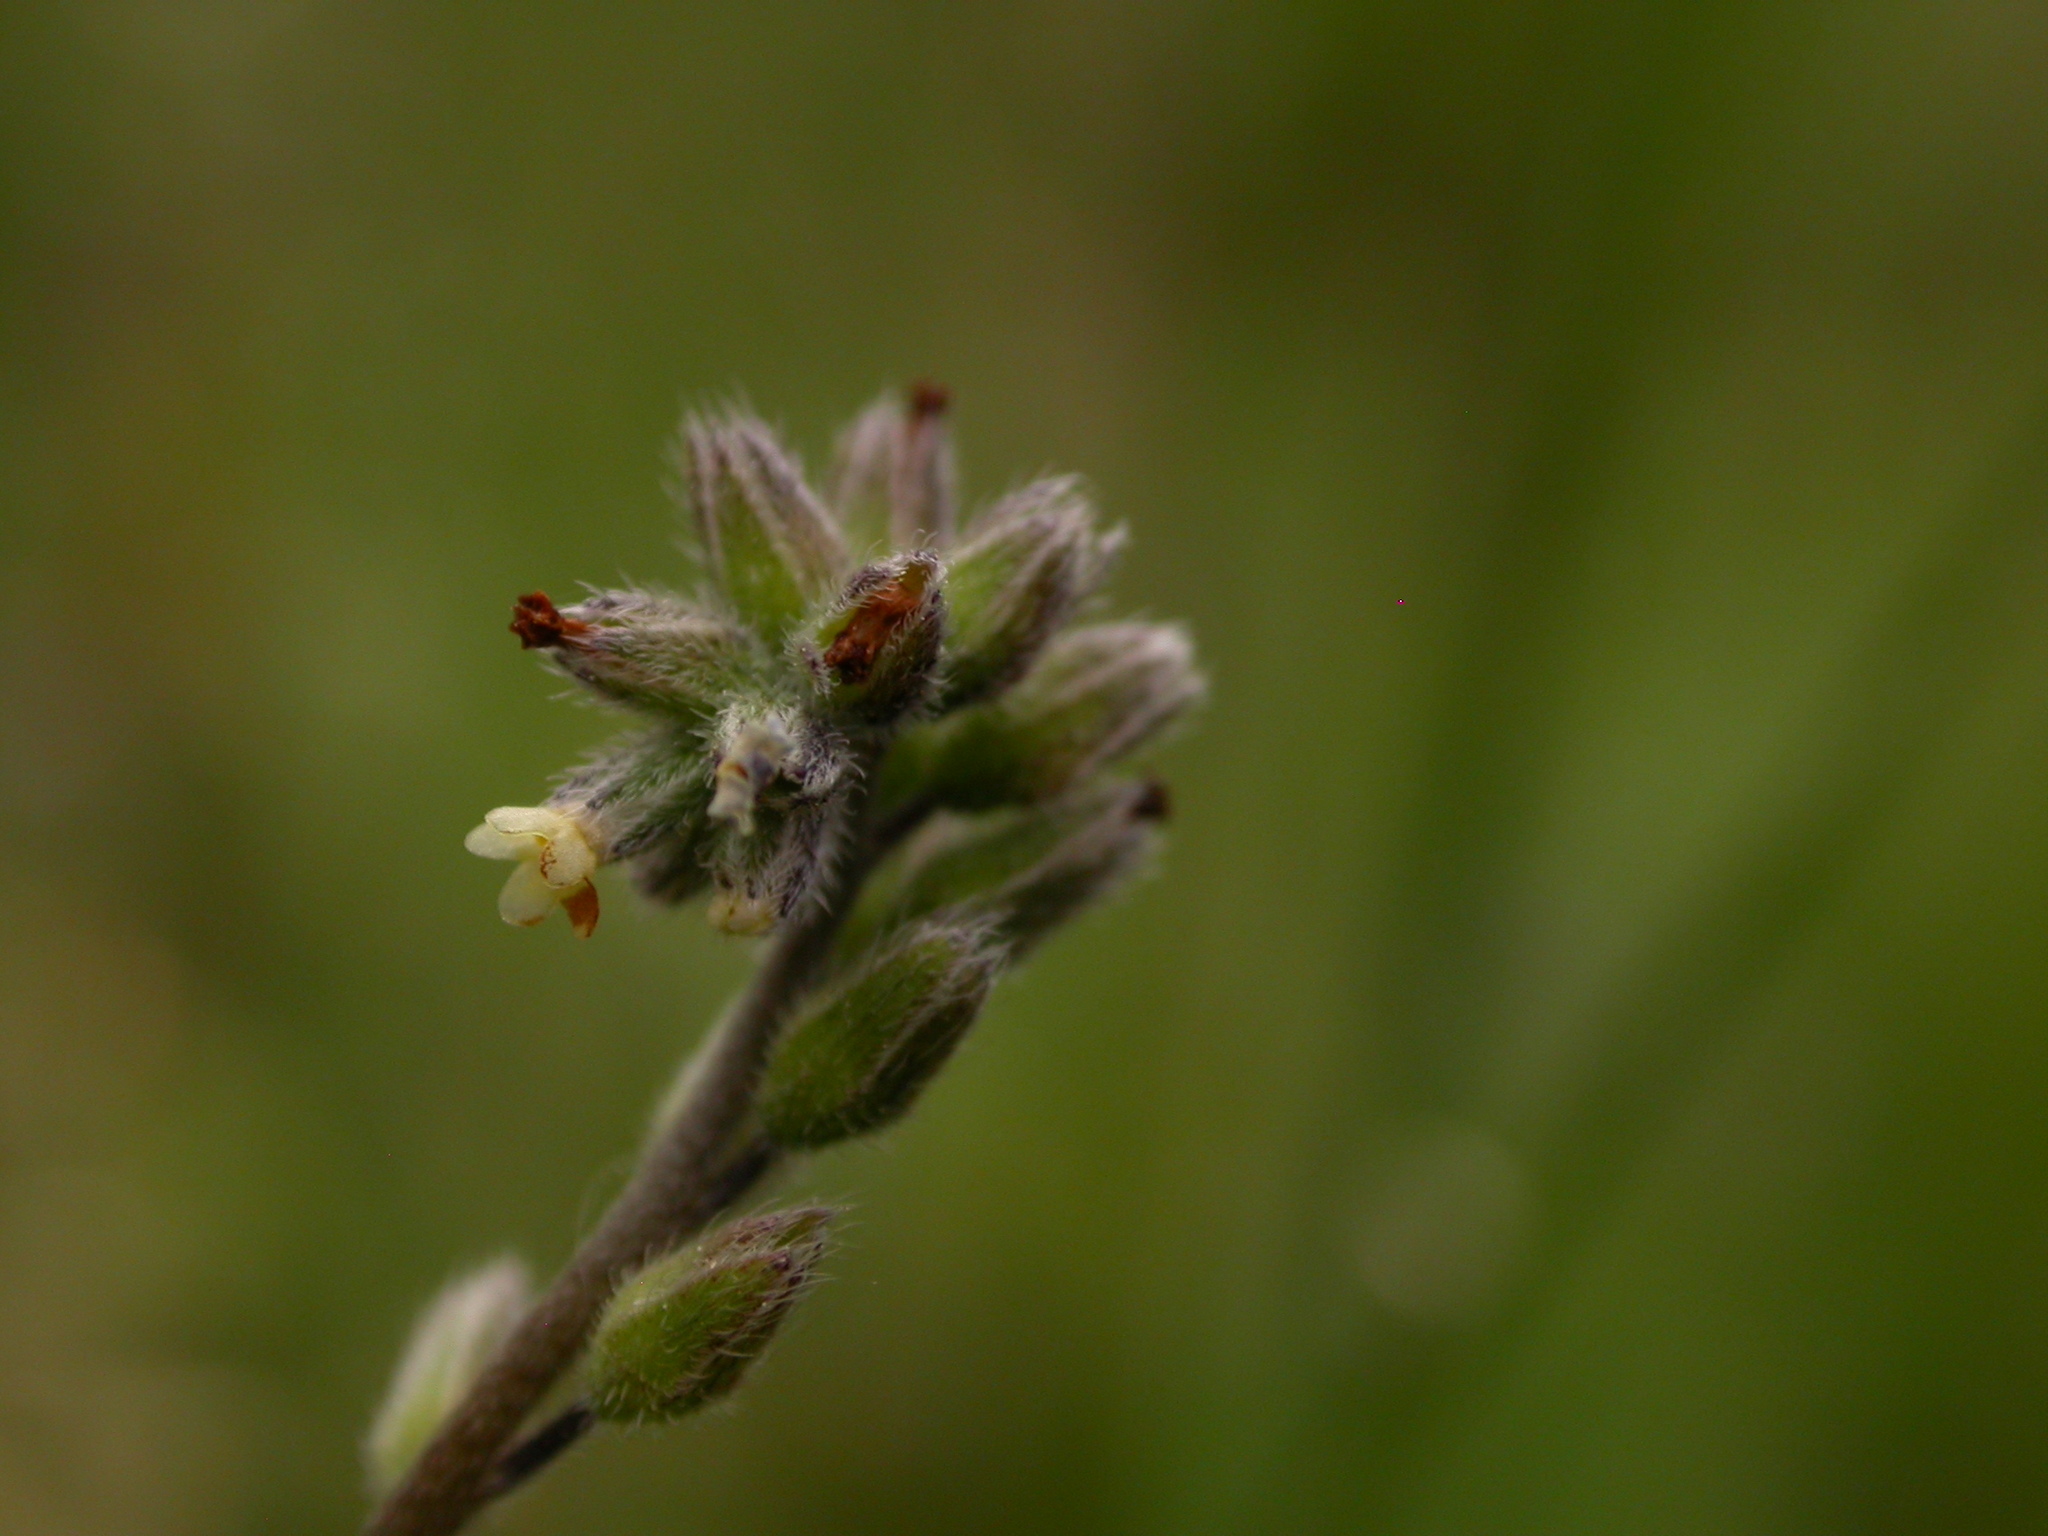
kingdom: Plantae
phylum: Tracheophyta
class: Magnoliopsida
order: Boraginales
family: Boraginaceae
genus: Myosotis
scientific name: Myosotis discolor
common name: Changing forget-me-not
